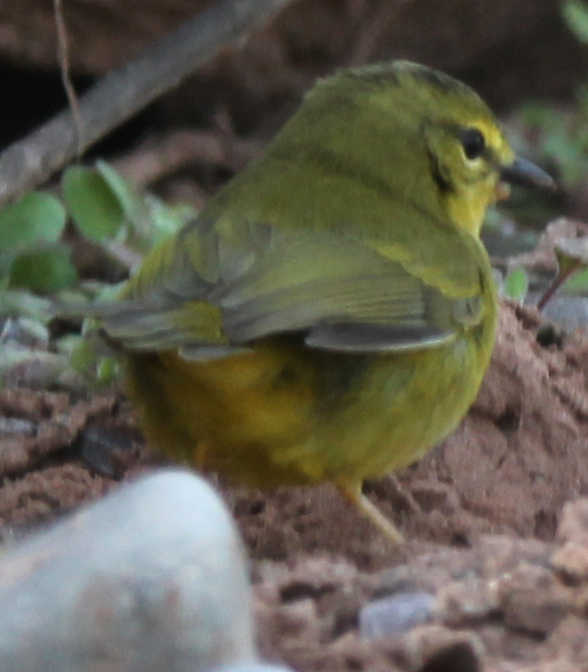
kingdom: Animalia
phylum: Chordata
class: Aves
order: Passeriformes
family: Parulidae
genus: Myiothlypis
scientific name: Myiothlypis bivittata
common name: Two-banded warbler
